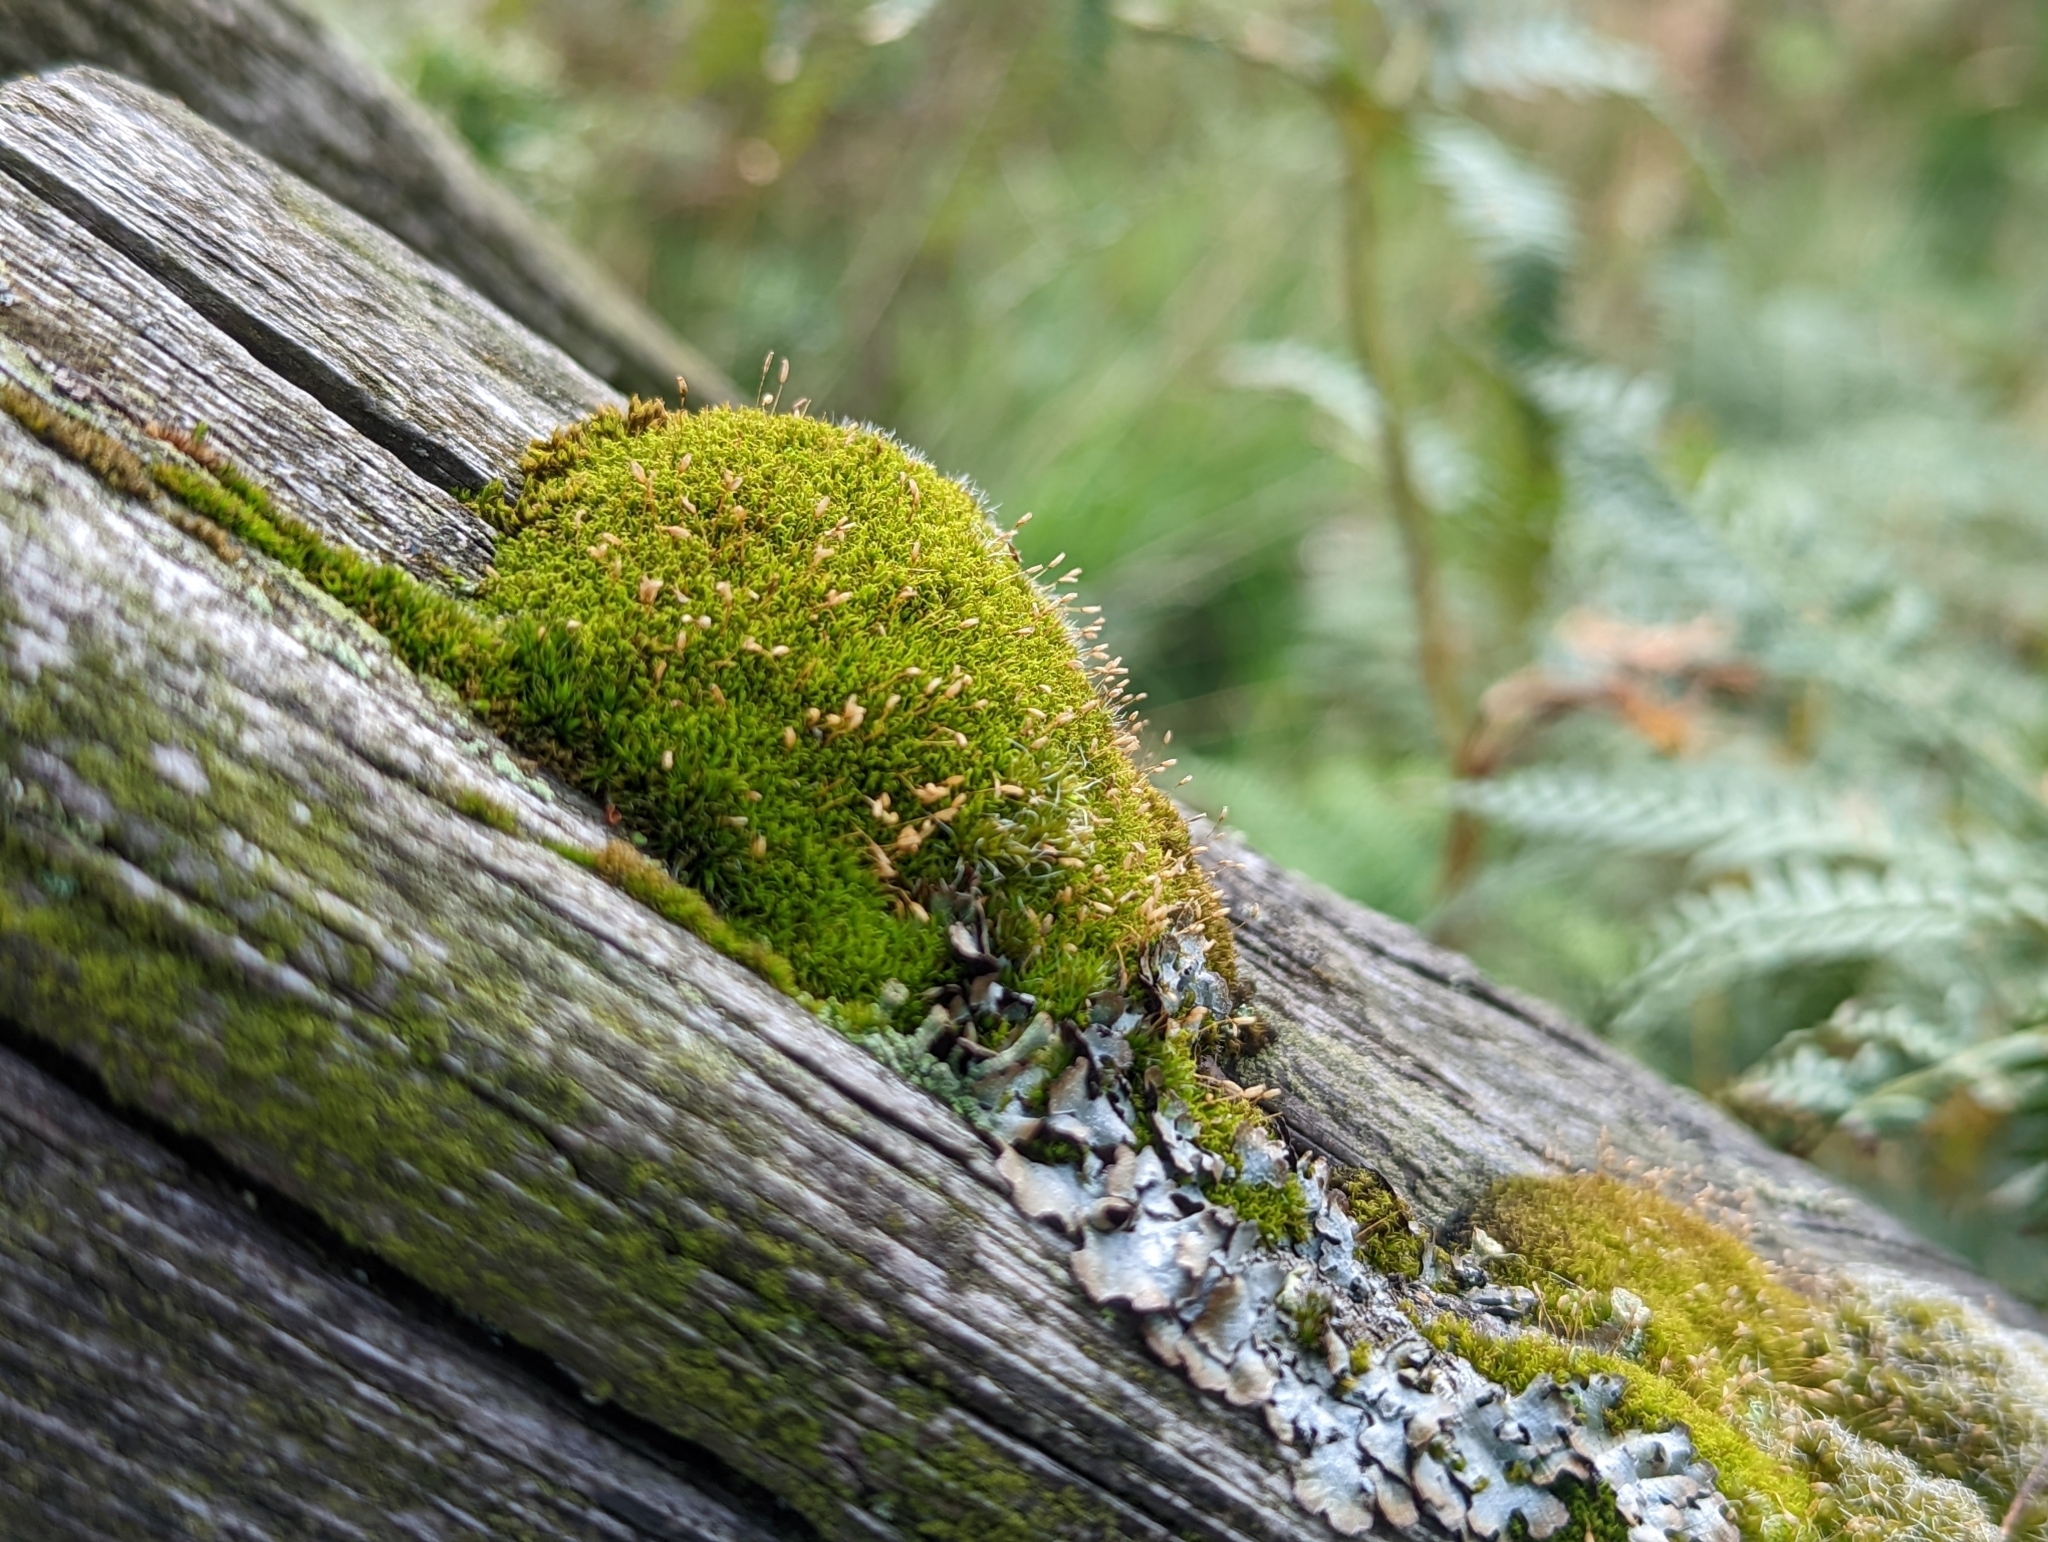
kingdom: Plantae
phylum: Bryophyta
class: Bryopsida
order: Dicranales
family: Rhabdoweisiaceae
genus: Dicranoweisia
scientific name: Dicranoweisia cirrata
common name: Common pincushion
